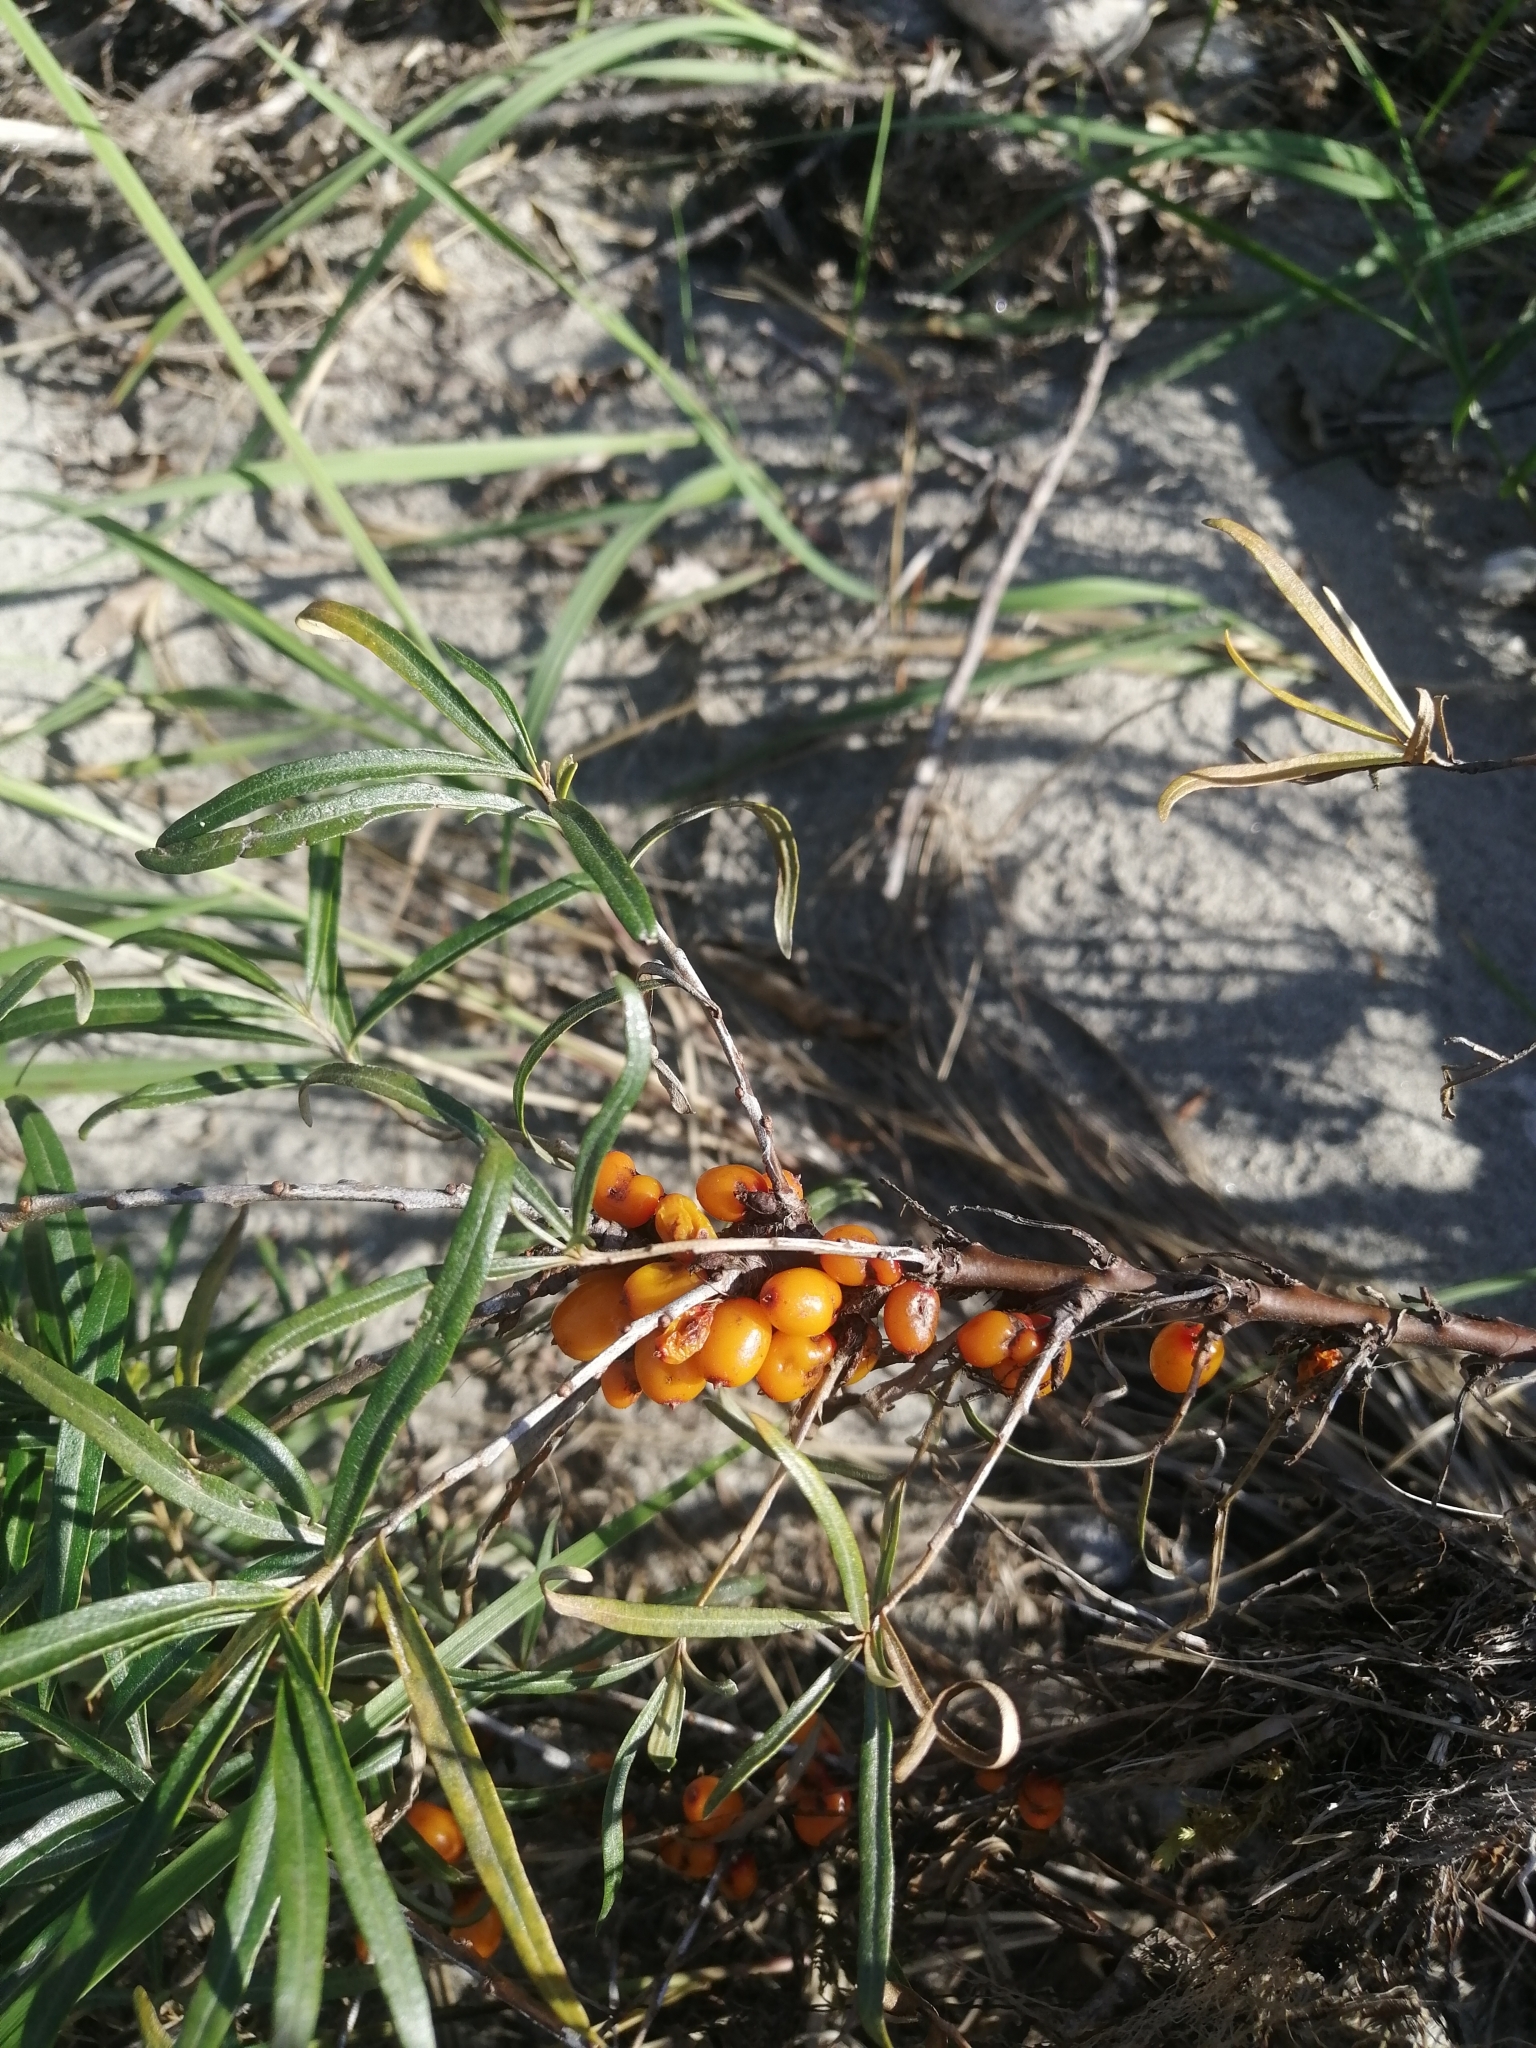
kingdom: Plantae
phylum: Tracheophyta
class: Magnoliopsida
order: Rosales
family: Elaeagnaceae
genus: Hippophae
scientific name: Hippophae rhamnoides
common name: Sea-buckthorn
